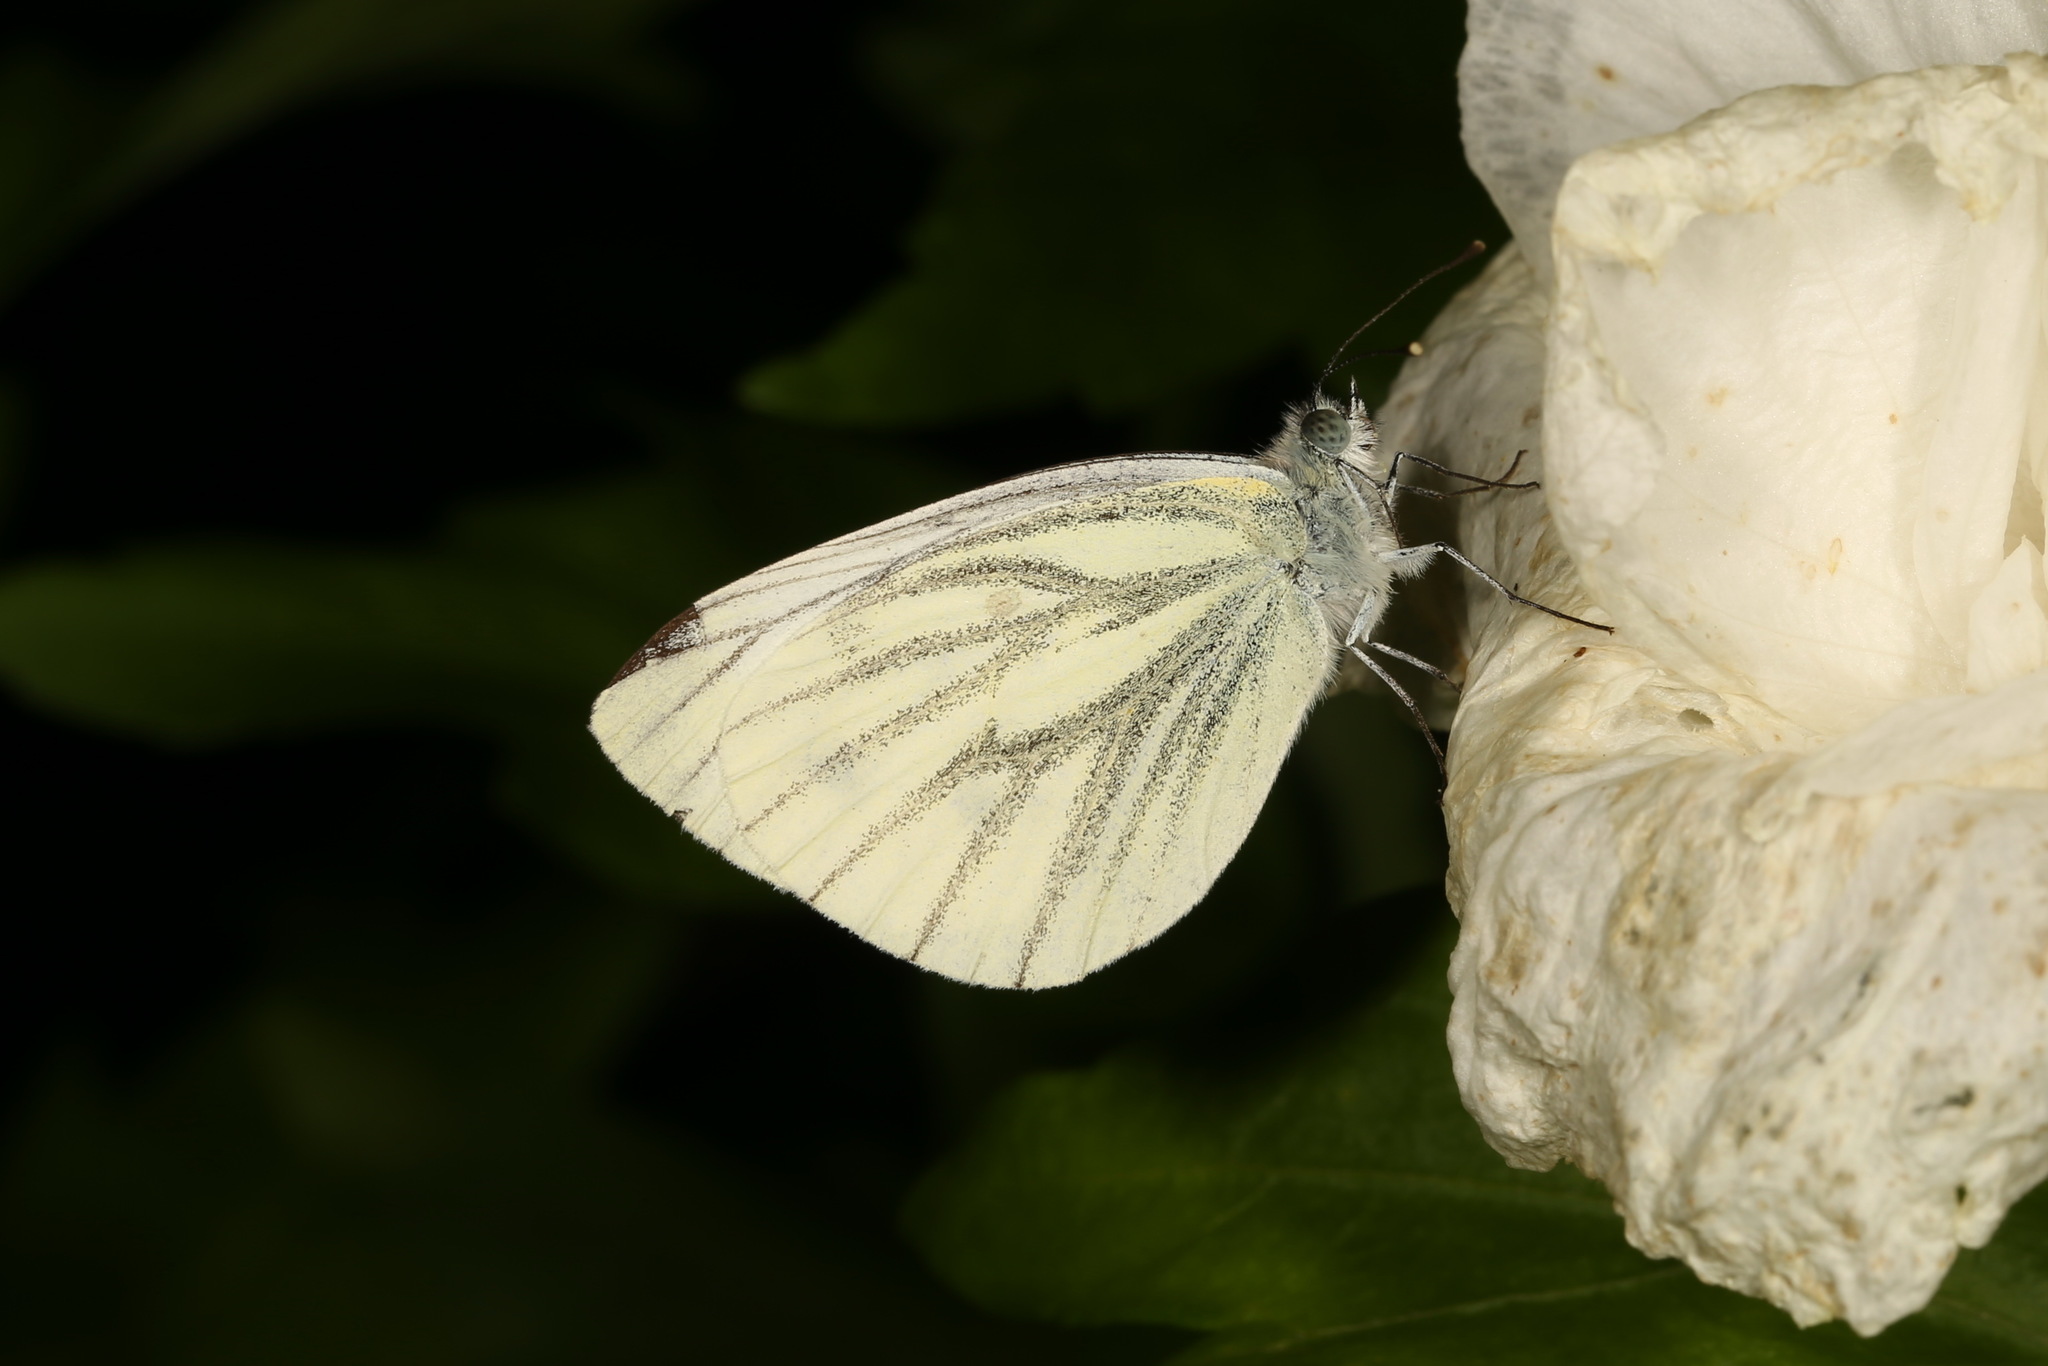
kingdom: Animalia
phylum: Arthropoda
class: Insecta
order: Lepidoptera
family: Pieridae
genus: Pieris
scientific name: Pieris napi
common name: Green-veined white
